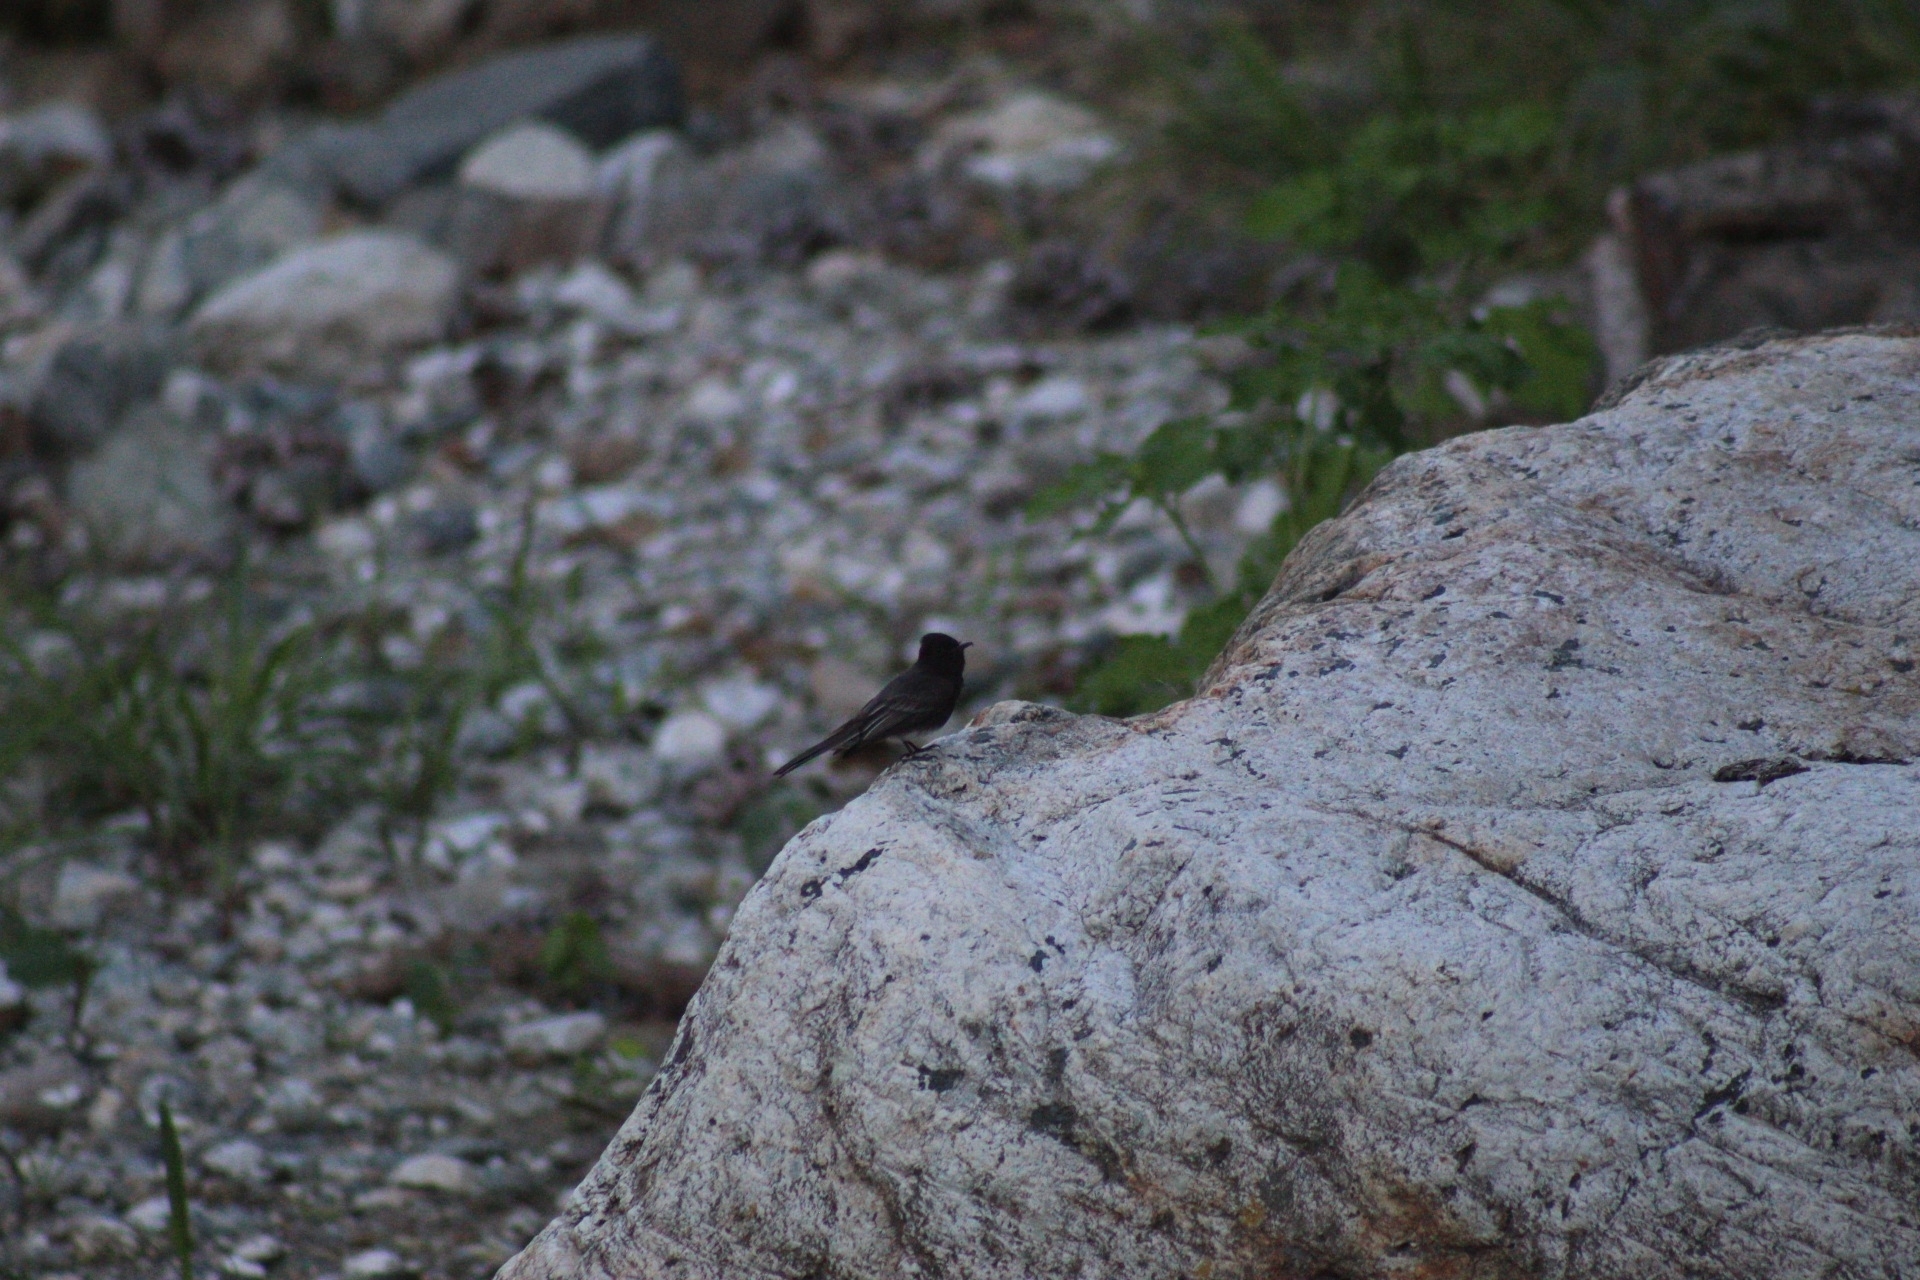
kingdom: Animalia
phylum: Chordata
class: Aves
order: Passeriformes
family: Tyrannidae
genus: Sayornis
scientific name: Sayornis nigricans
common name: Black phoebe
